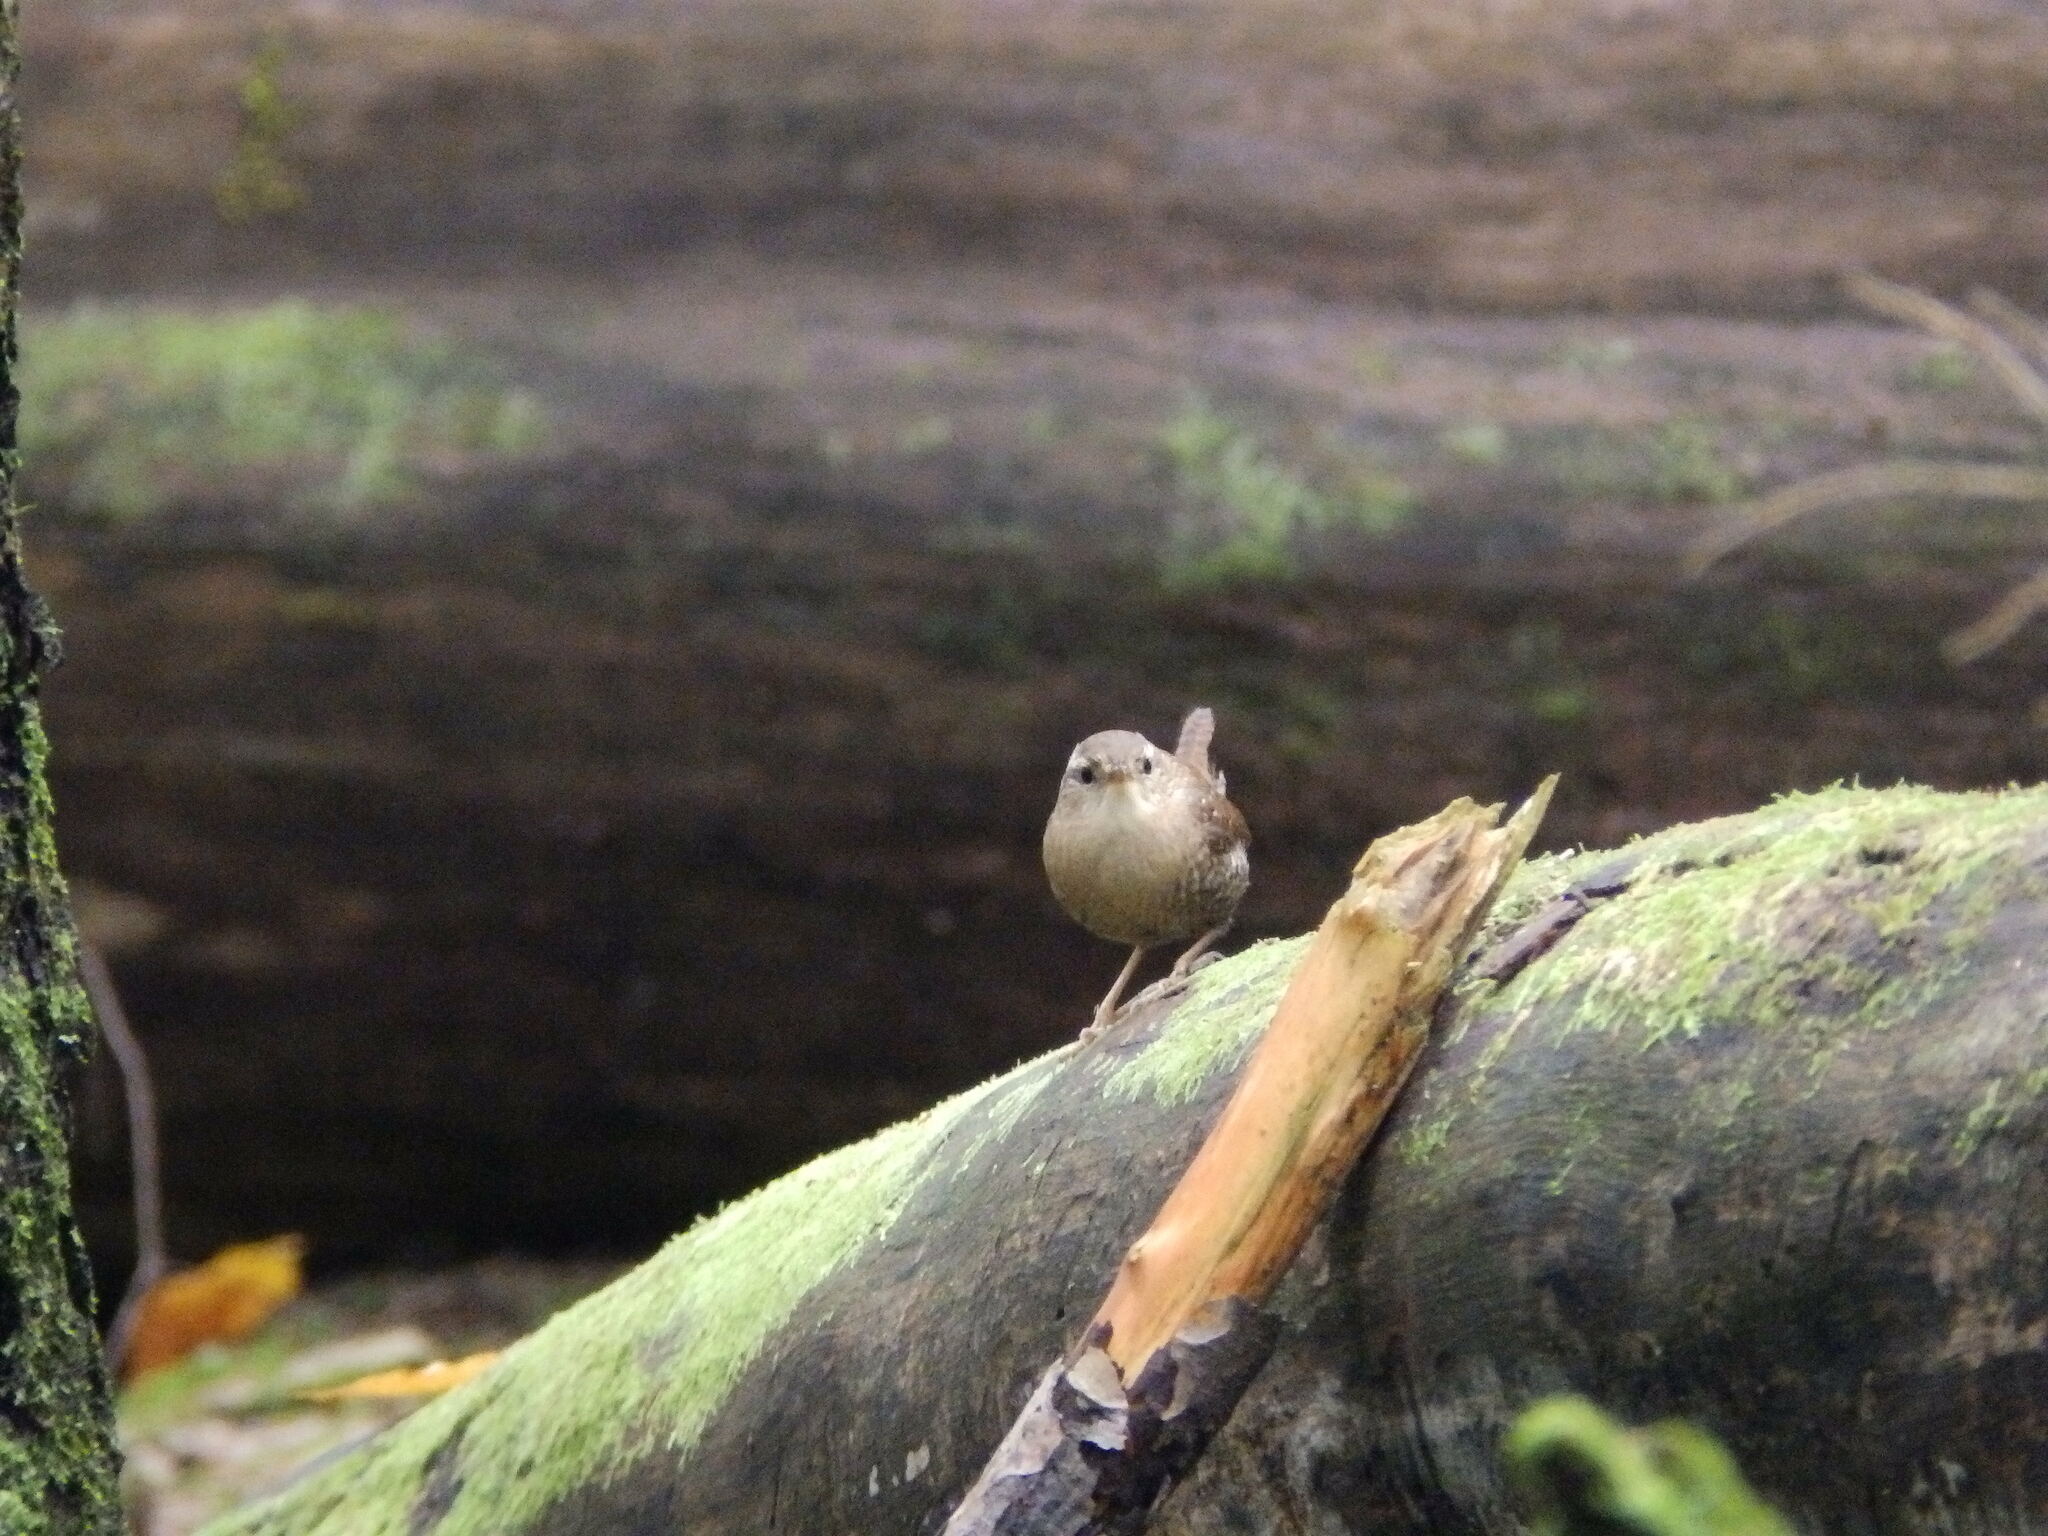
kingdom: Animalia
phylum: Chordata
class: Aves
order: Passeriformes
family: Troglodytidae
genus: Troglodytes
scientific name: Troglodytes hiemalis
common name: Winter wren
